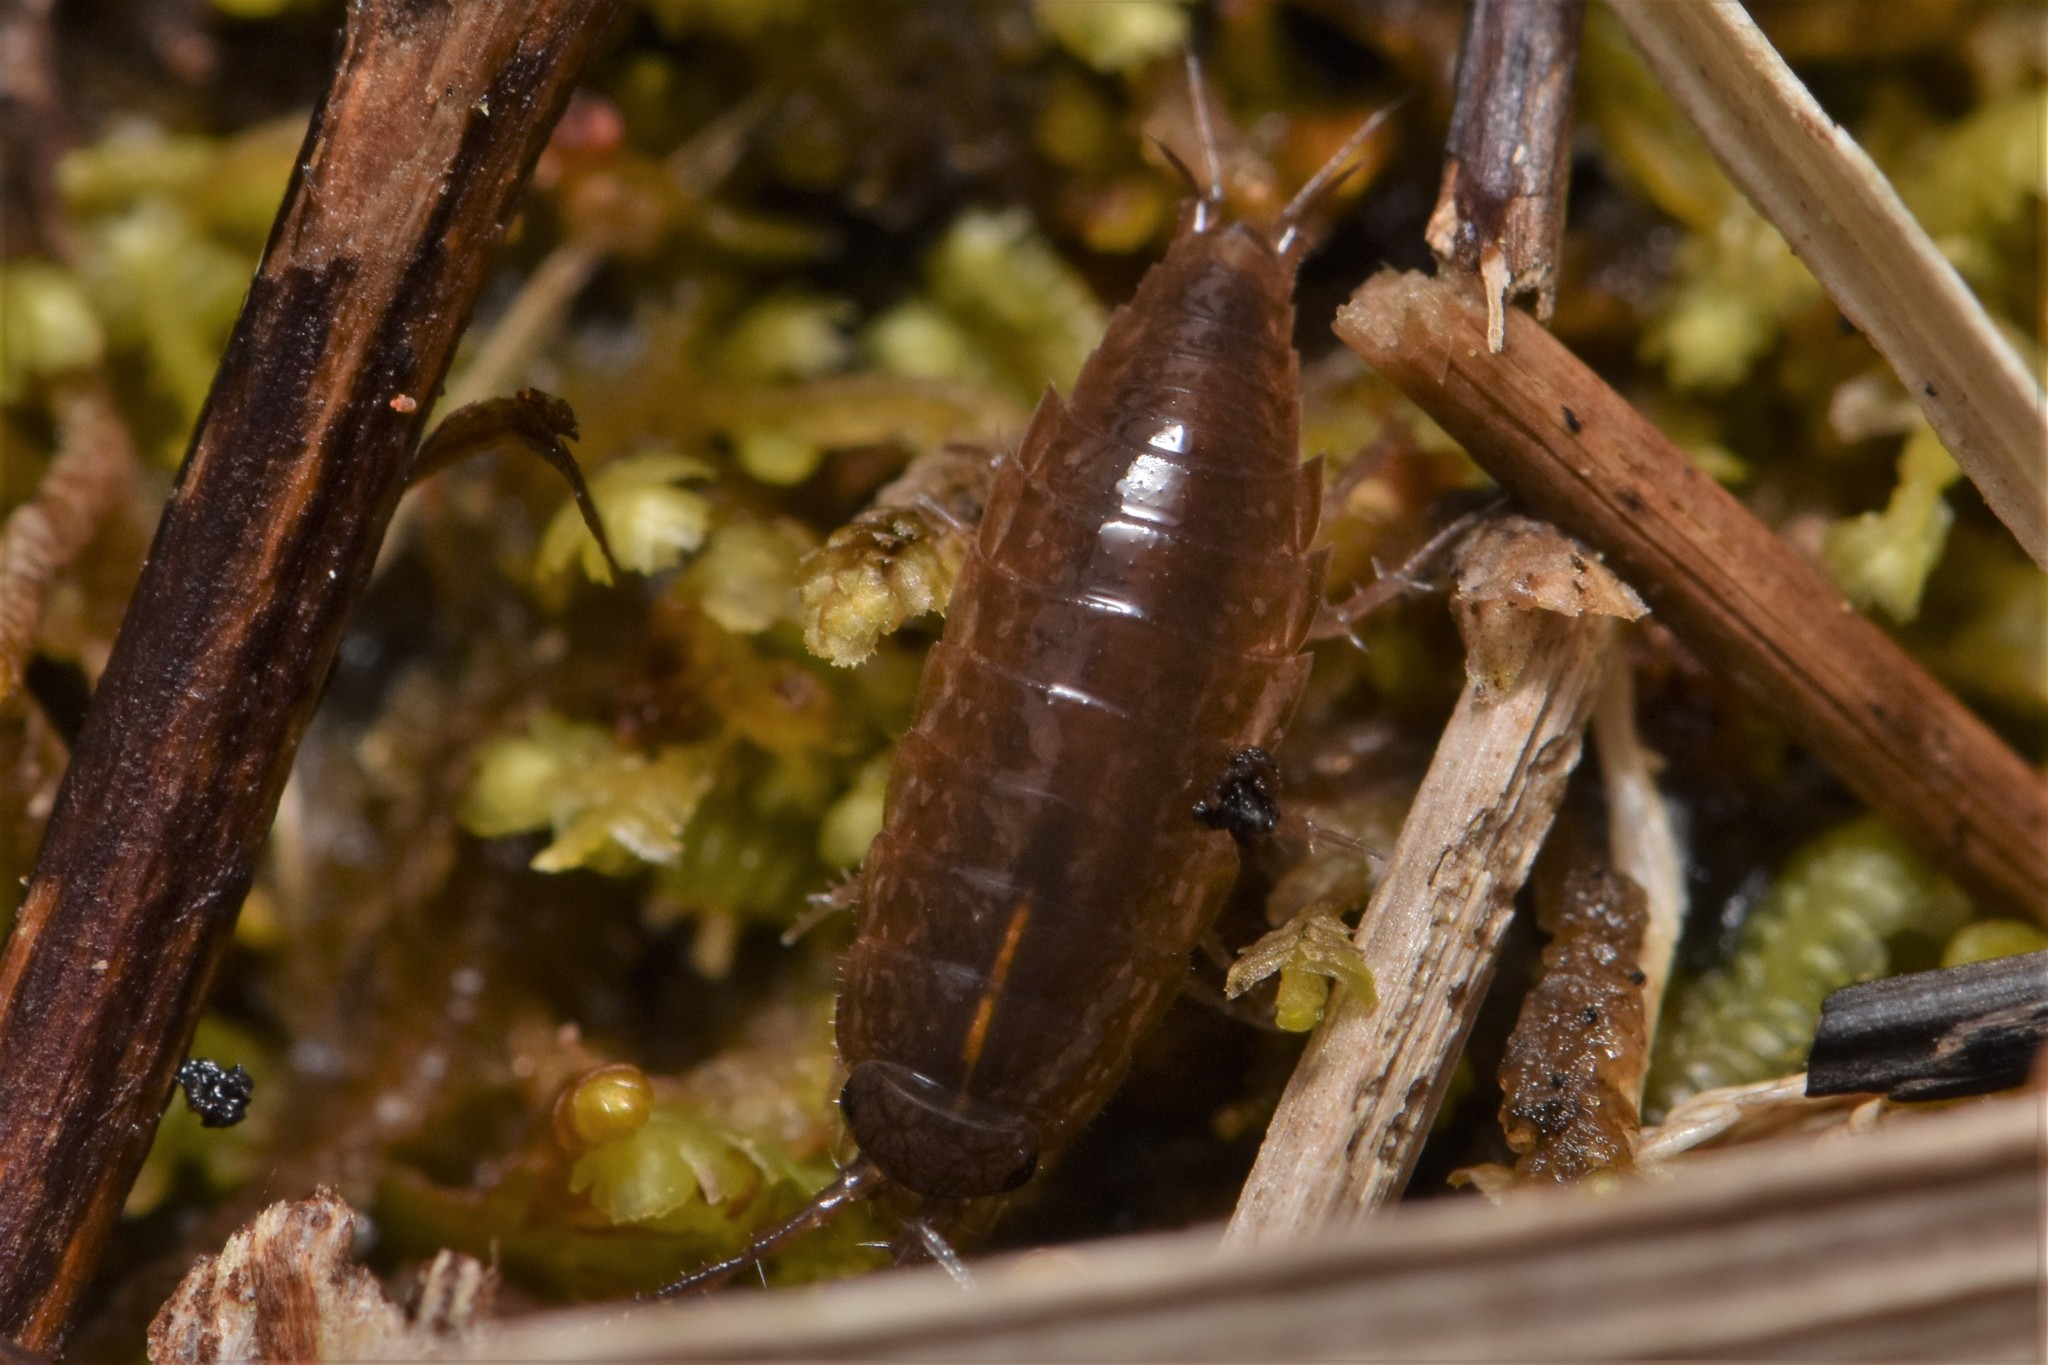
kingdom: Animalia
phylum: Arthropoda
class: Malacostraca
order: Isopoda
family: Ligiidae
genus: Ligidium
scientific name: Ligidium gracile
